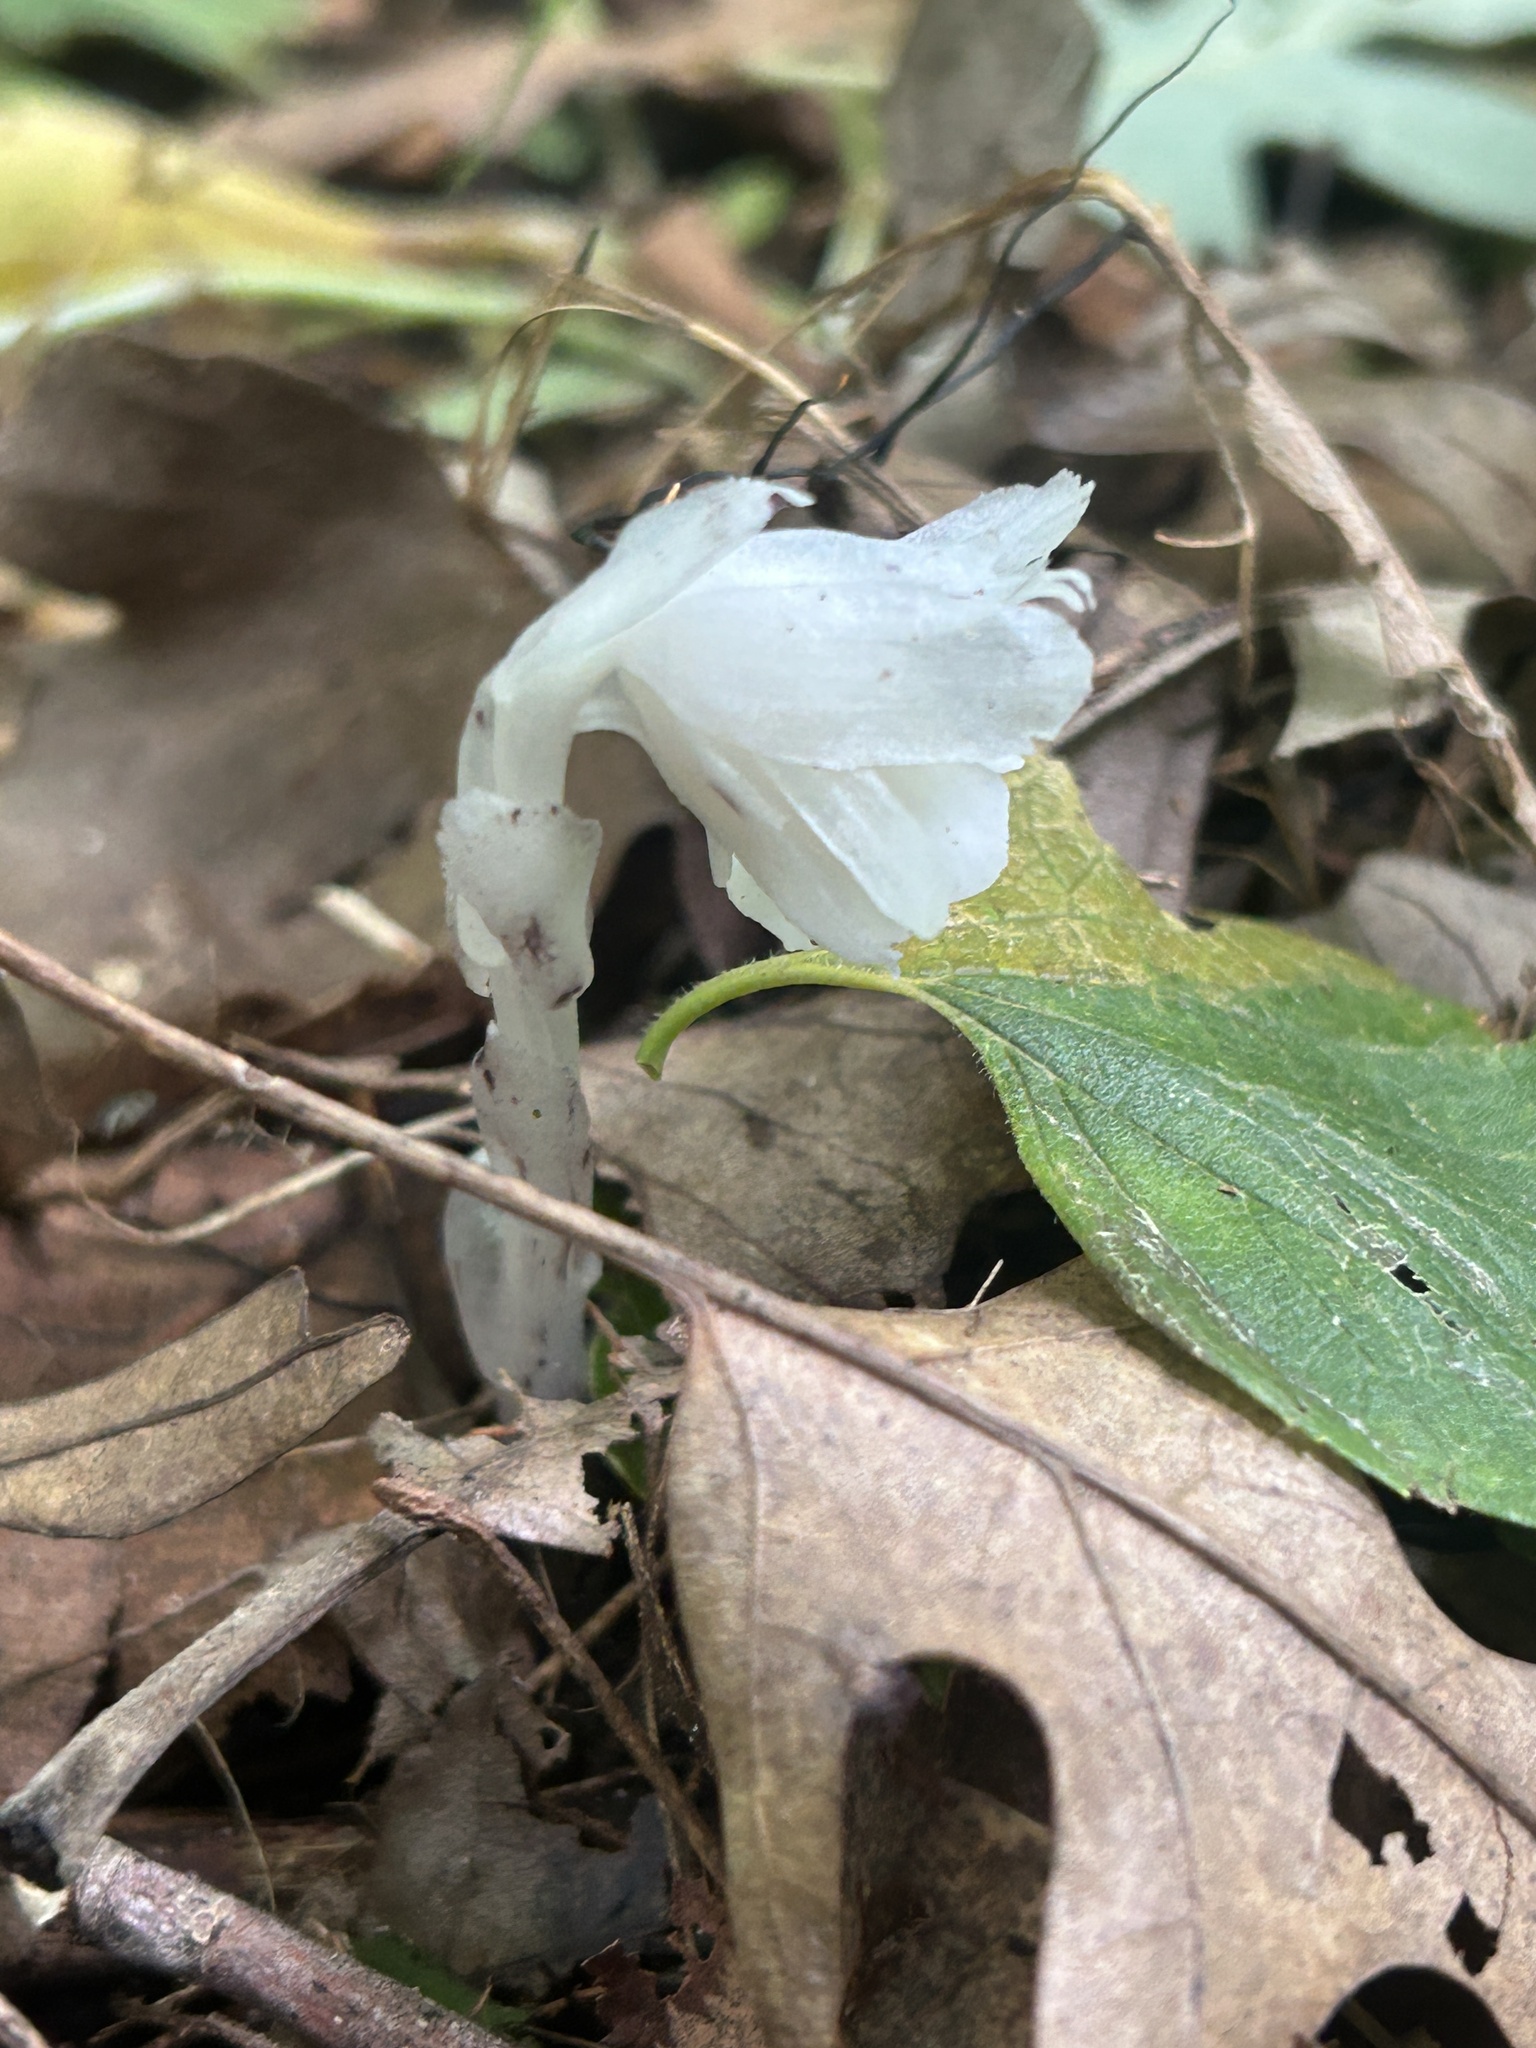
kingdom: Plantae
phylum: Tracheophyta
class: Magnoliopsida
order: Ericales
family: Ericaceae
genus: Monotropa
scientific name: Monotropa uniflora
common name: Convulsion root
